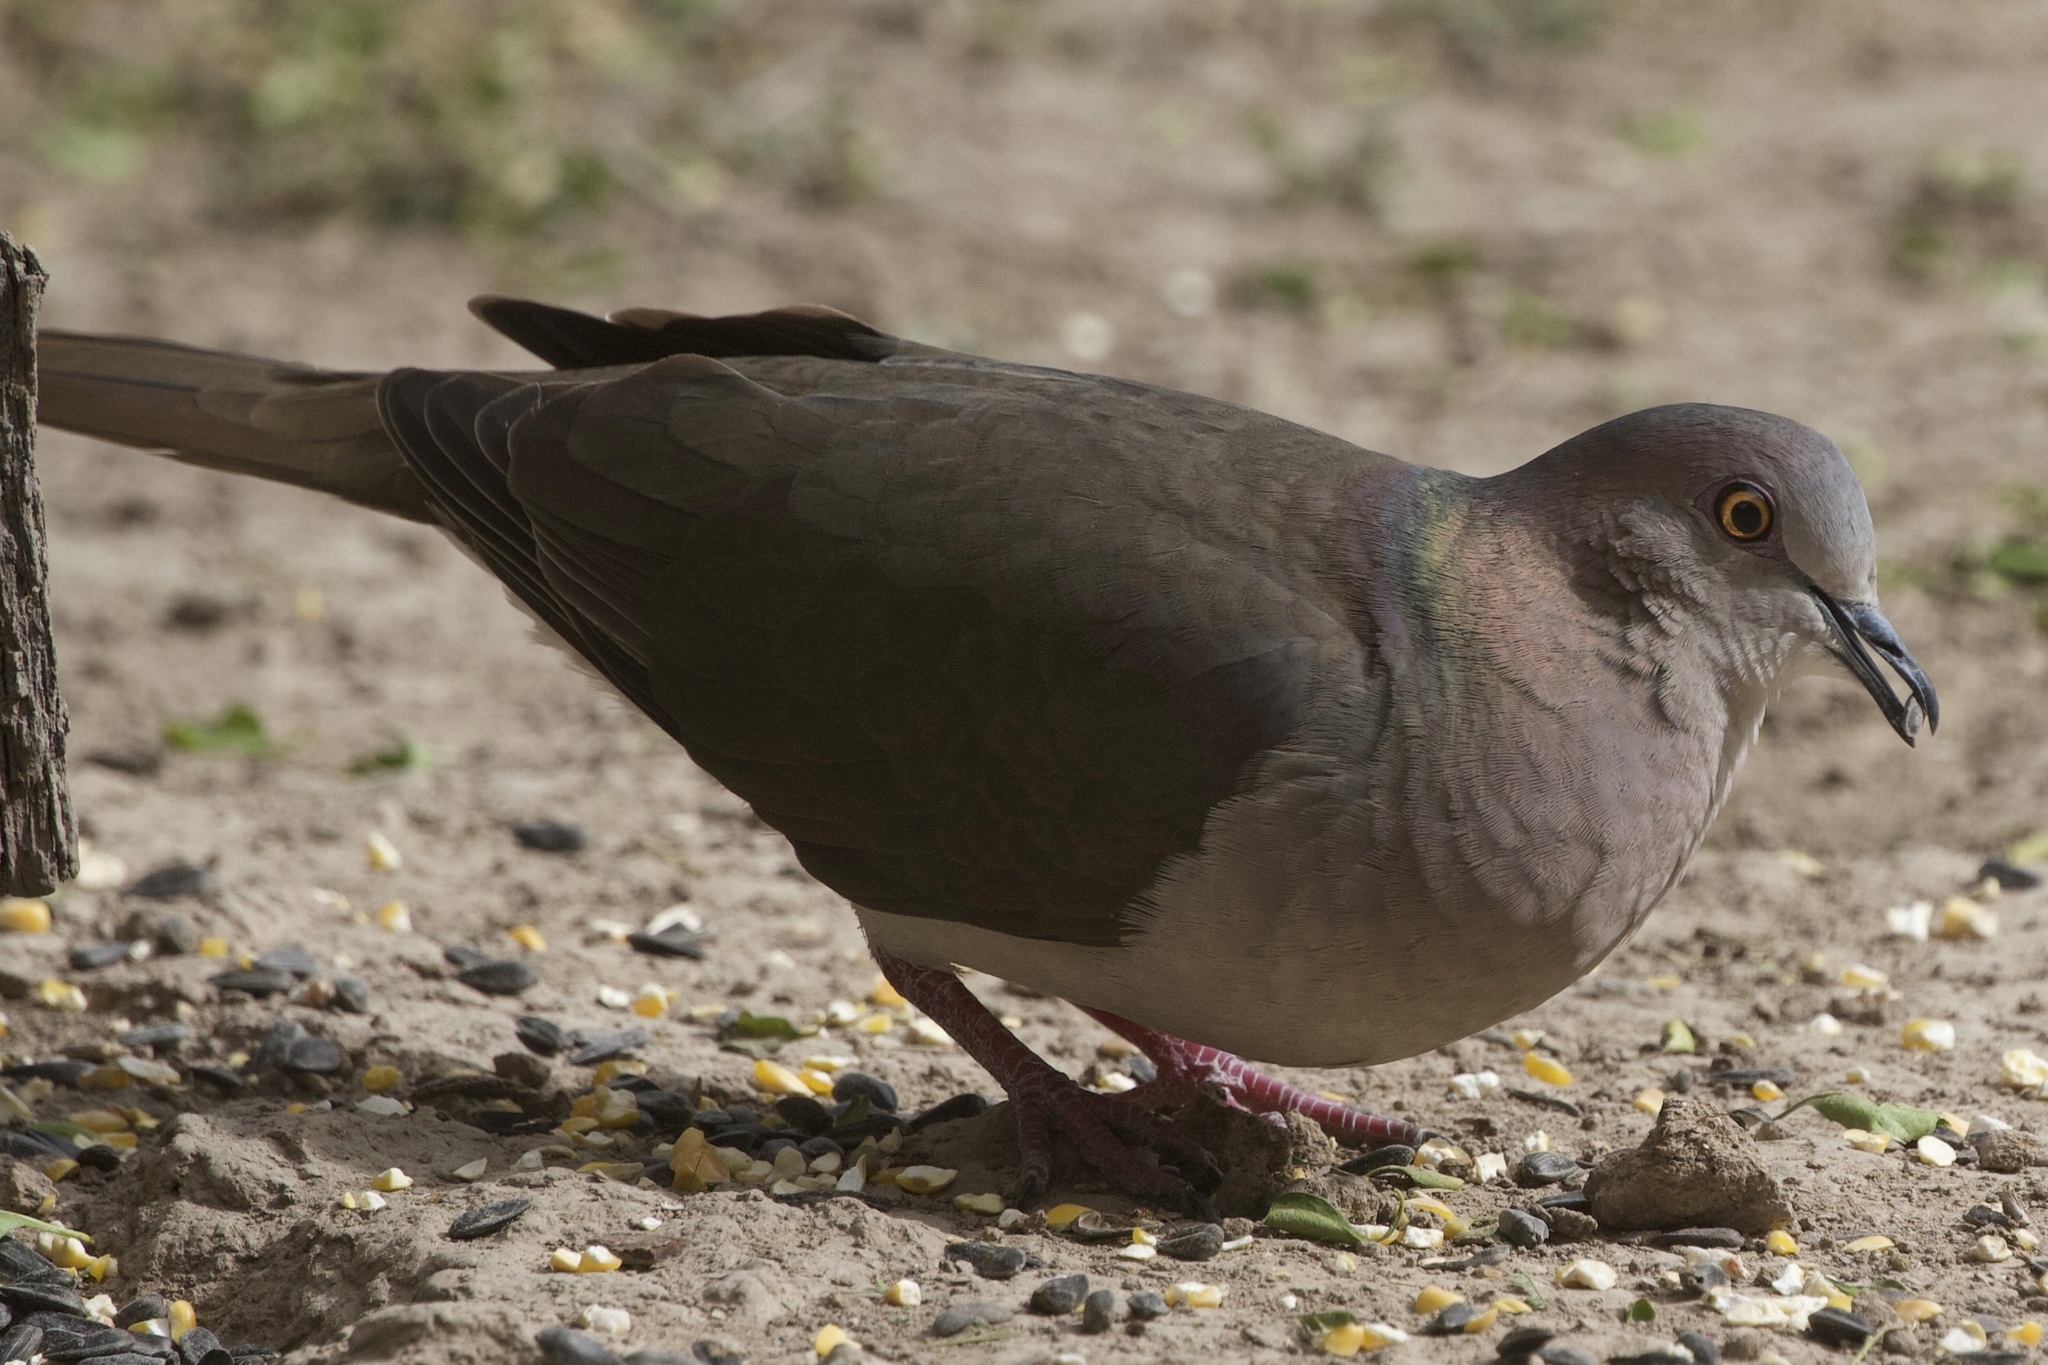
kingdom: Animalia
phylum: Chordata
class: Aves
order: Columbiformes
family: Columbidae
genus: Leptotila
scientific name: Leptotila verreauxi
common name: White-tipped dove
